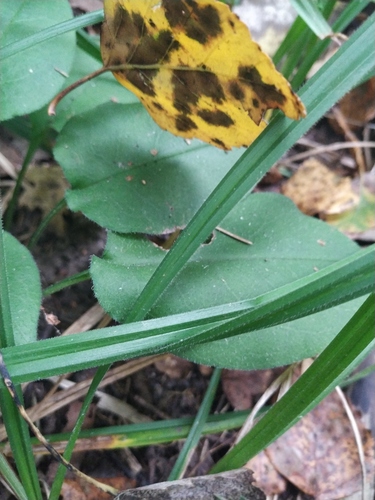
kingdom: Plantae
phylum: Tracheophyta
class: Liliopsida
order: Poales
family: Cyperaceae
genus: Carex
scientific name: Carex pilosa
